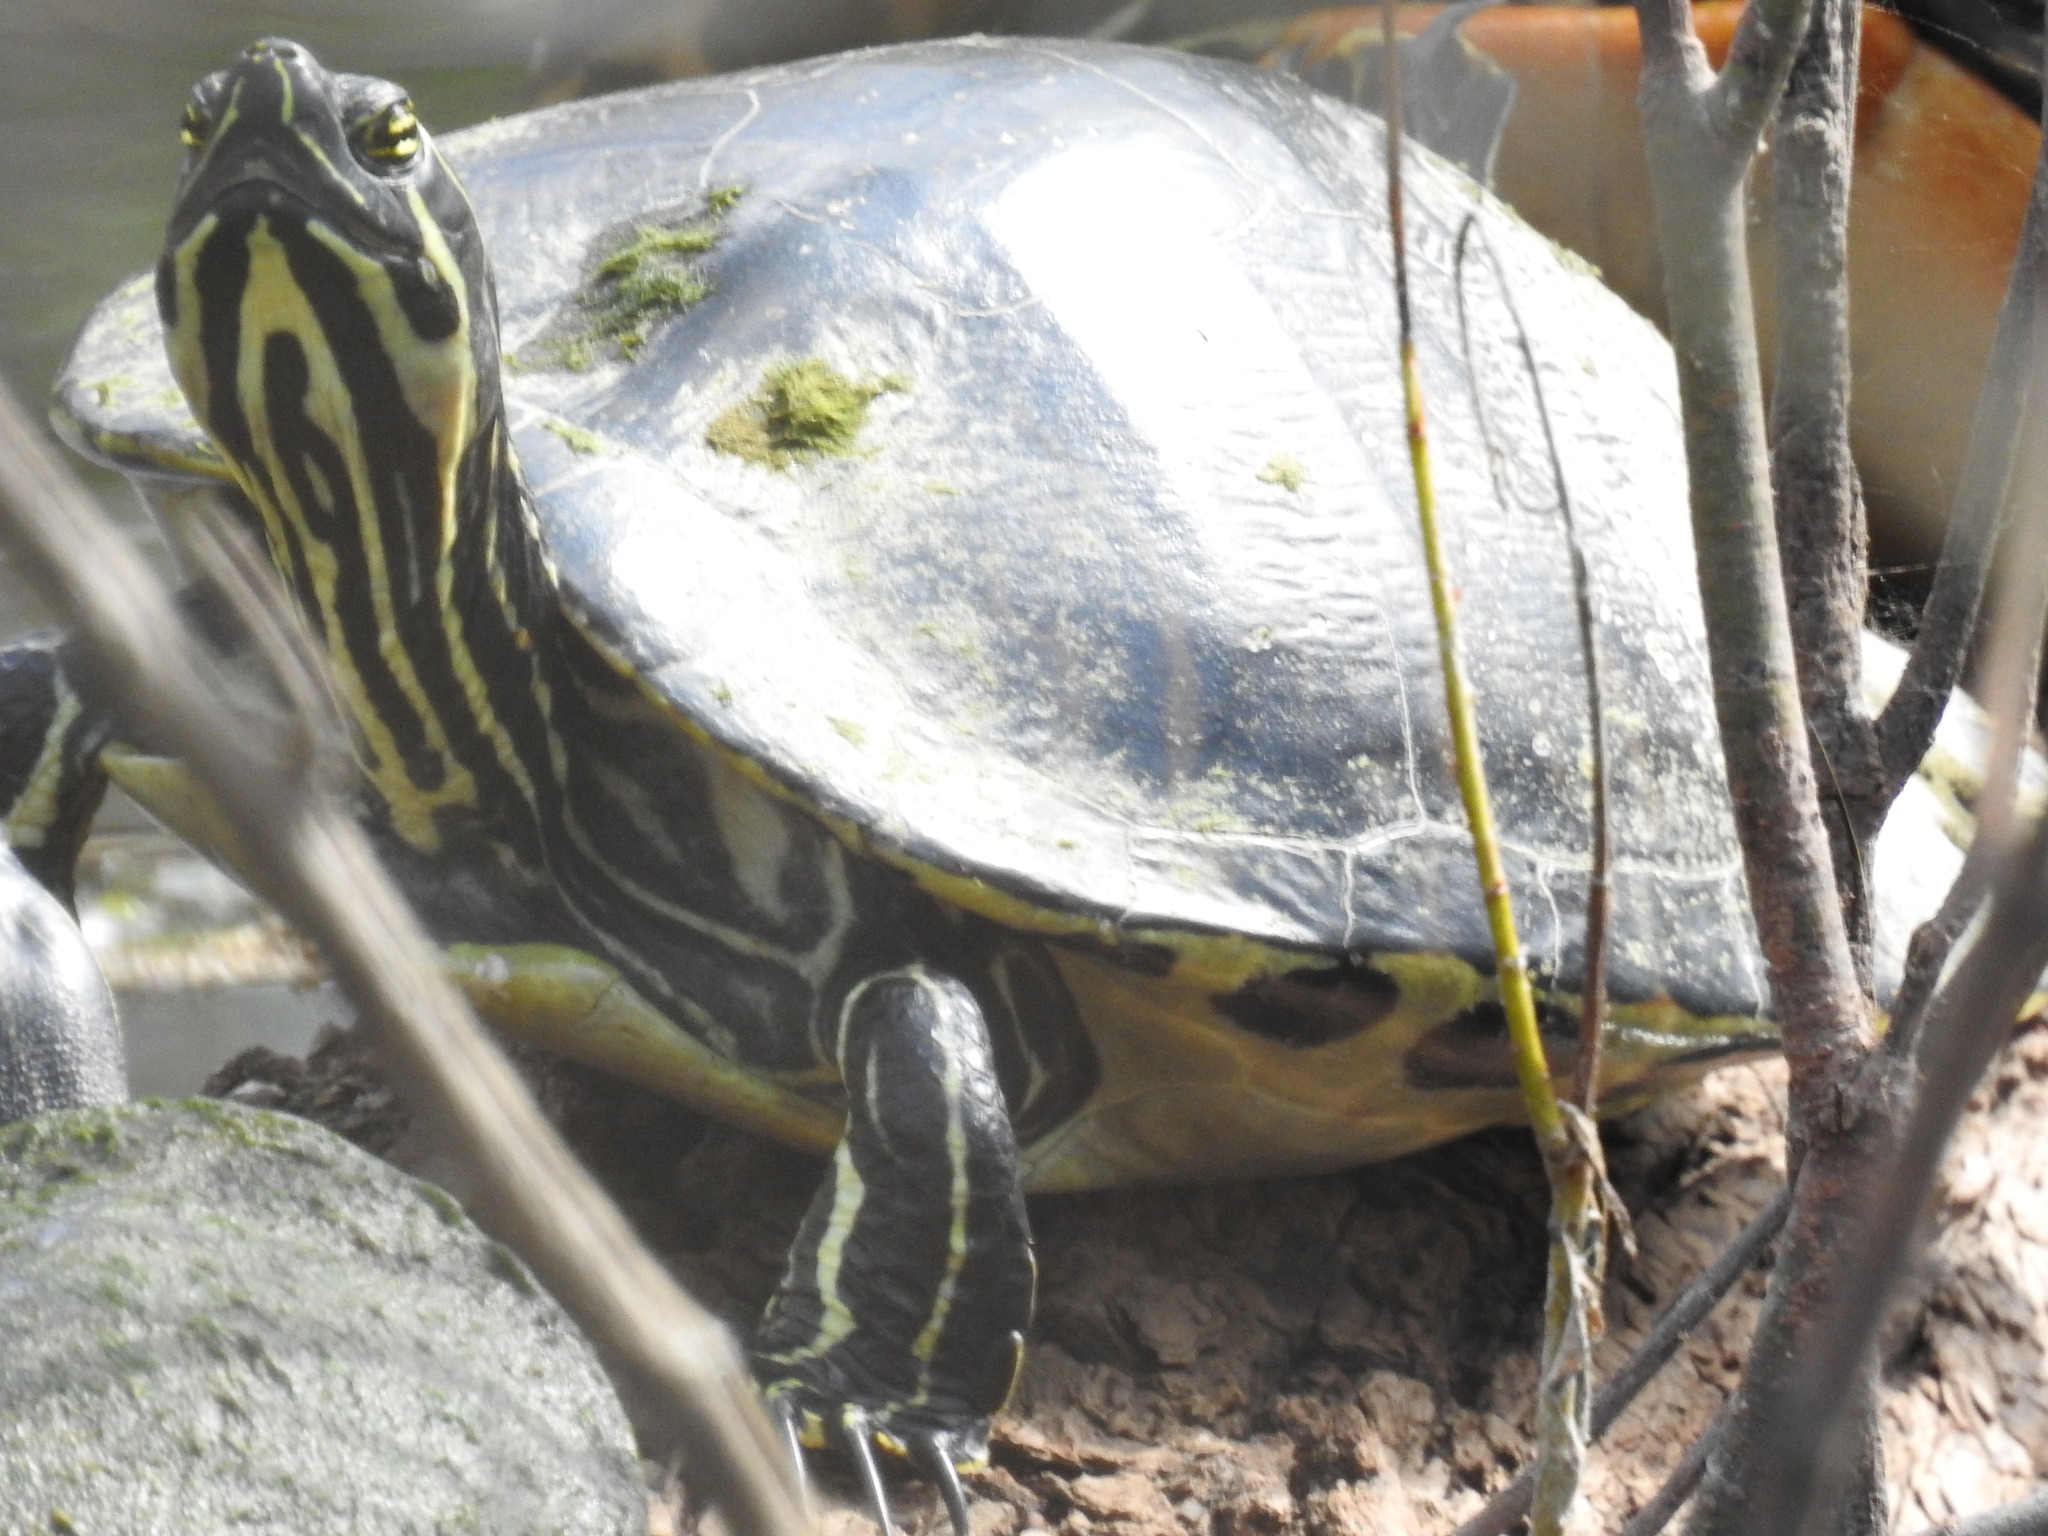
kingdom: Animalia
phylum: Chordata
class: Testudines
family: Emydidae
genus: Pseudemys
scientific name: Pseudemys peninsularis
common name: Peninsula cooter
